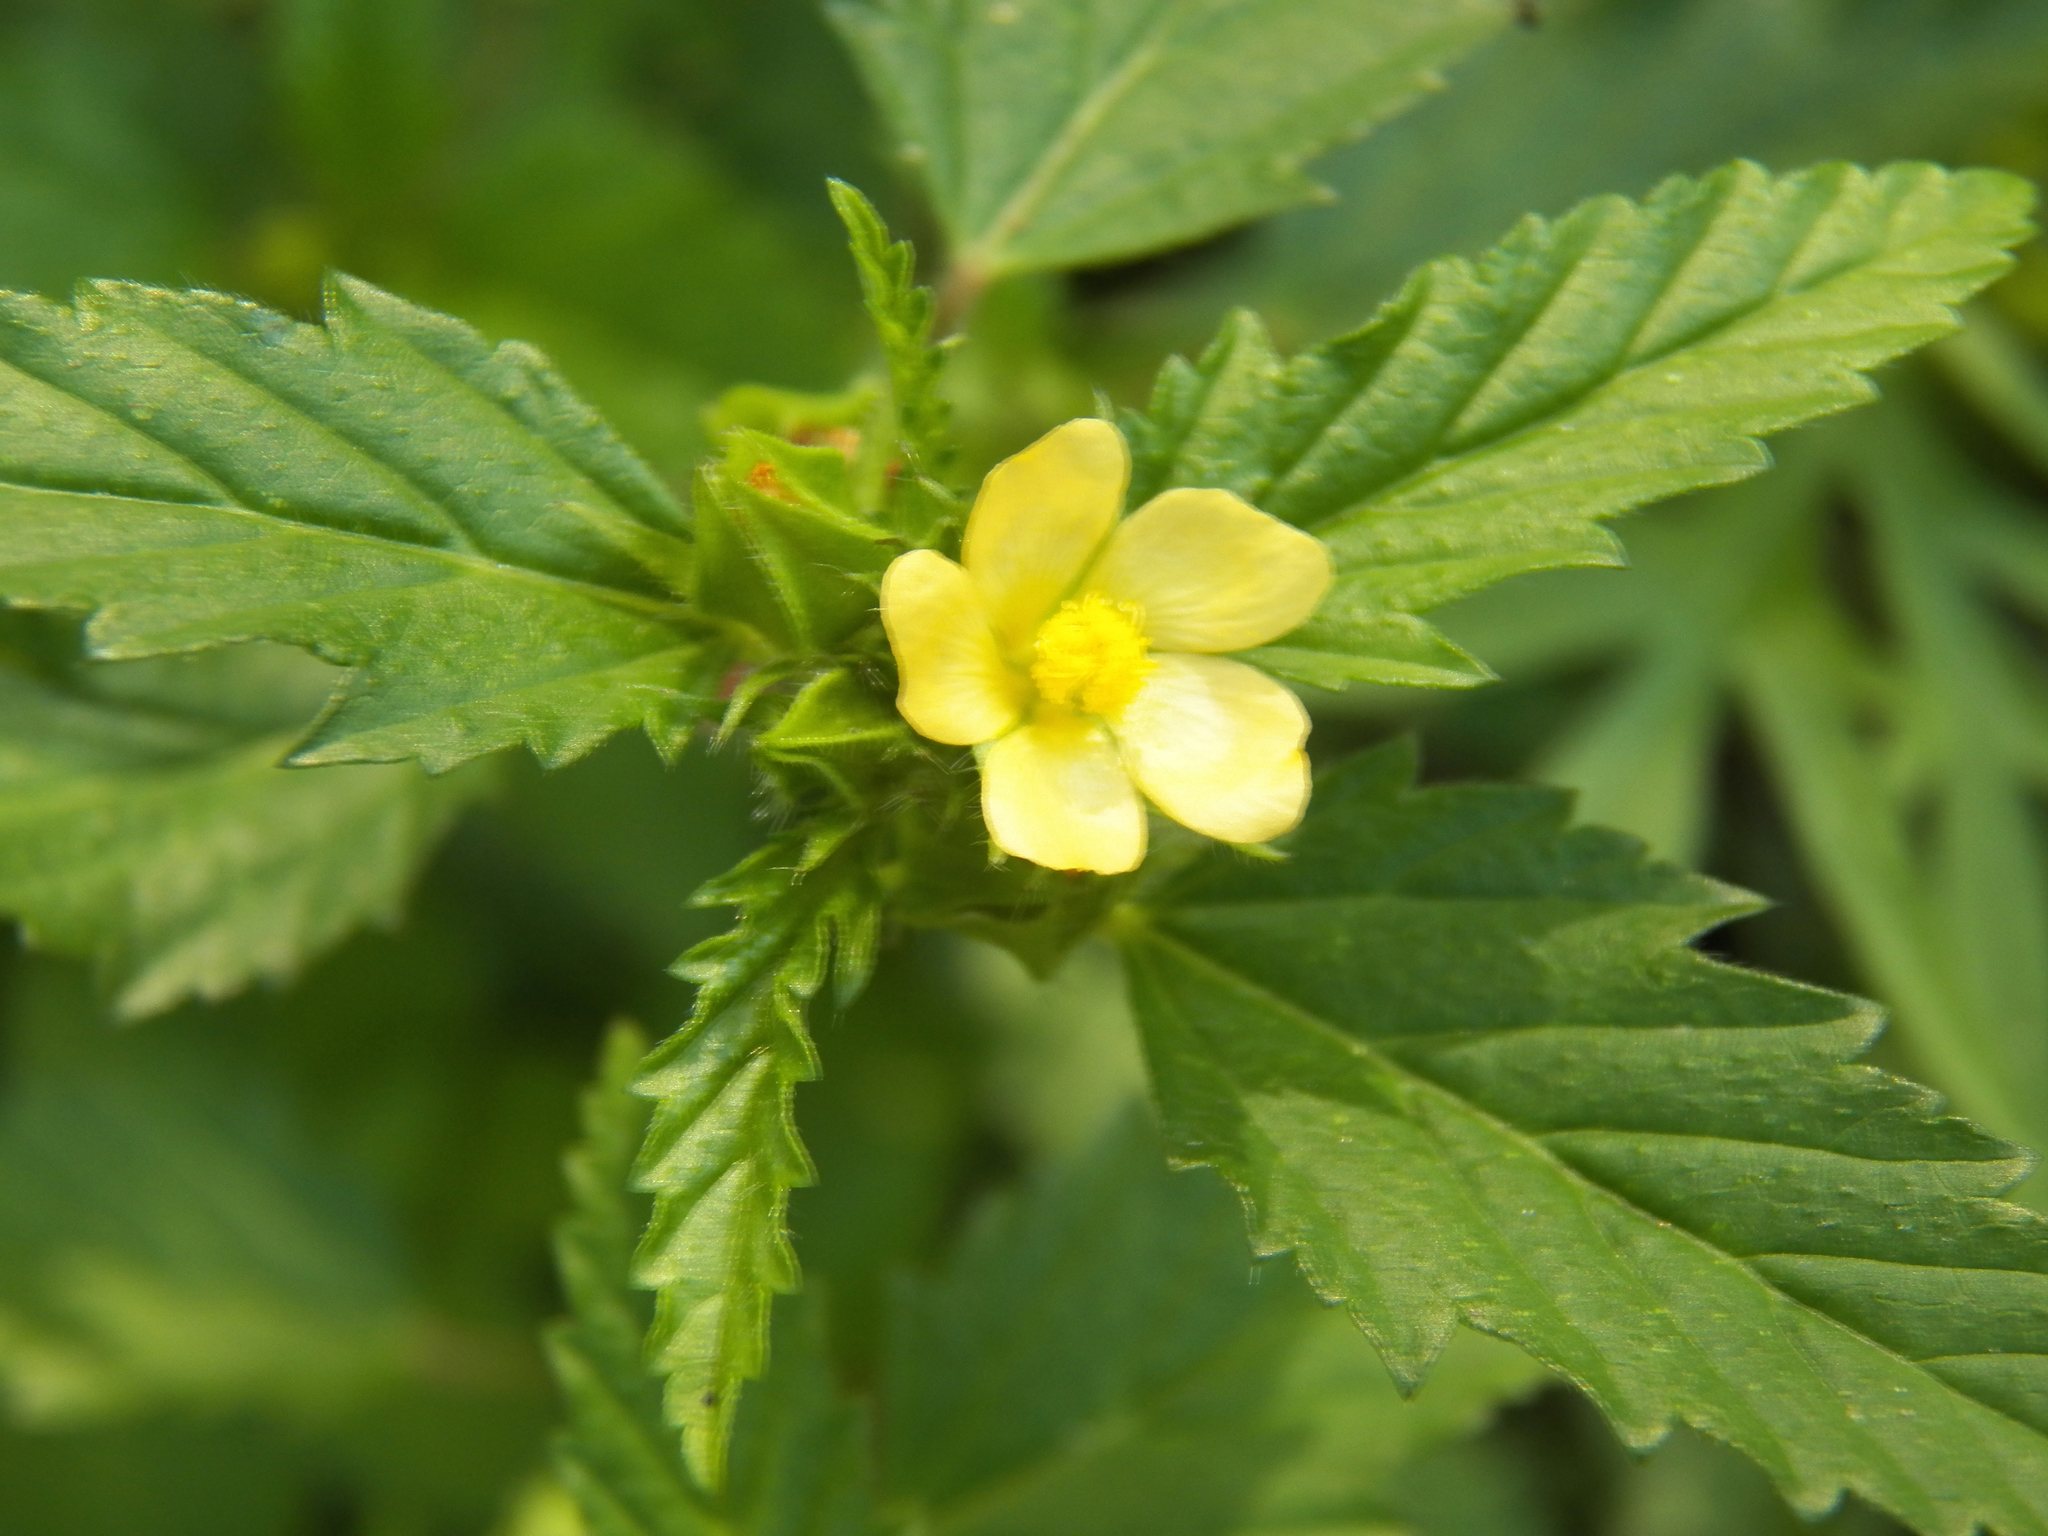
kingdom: Plantae
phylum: Tracheophyta
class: Magnoliopsida
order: Malvales
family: Malvaceae
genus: Malvastrum
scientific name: Malvastrum coromandelianum
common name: Threelobe false mallow
